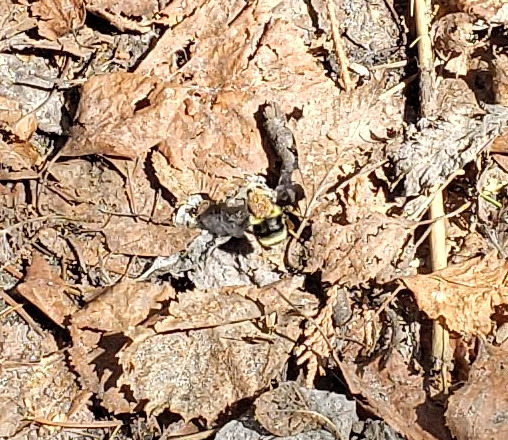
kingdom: Animalia
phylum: Arthropoda
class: Insecta
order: Hymenoptera
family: Apidae
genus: Bombus
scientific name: Bombus vancouverensis
